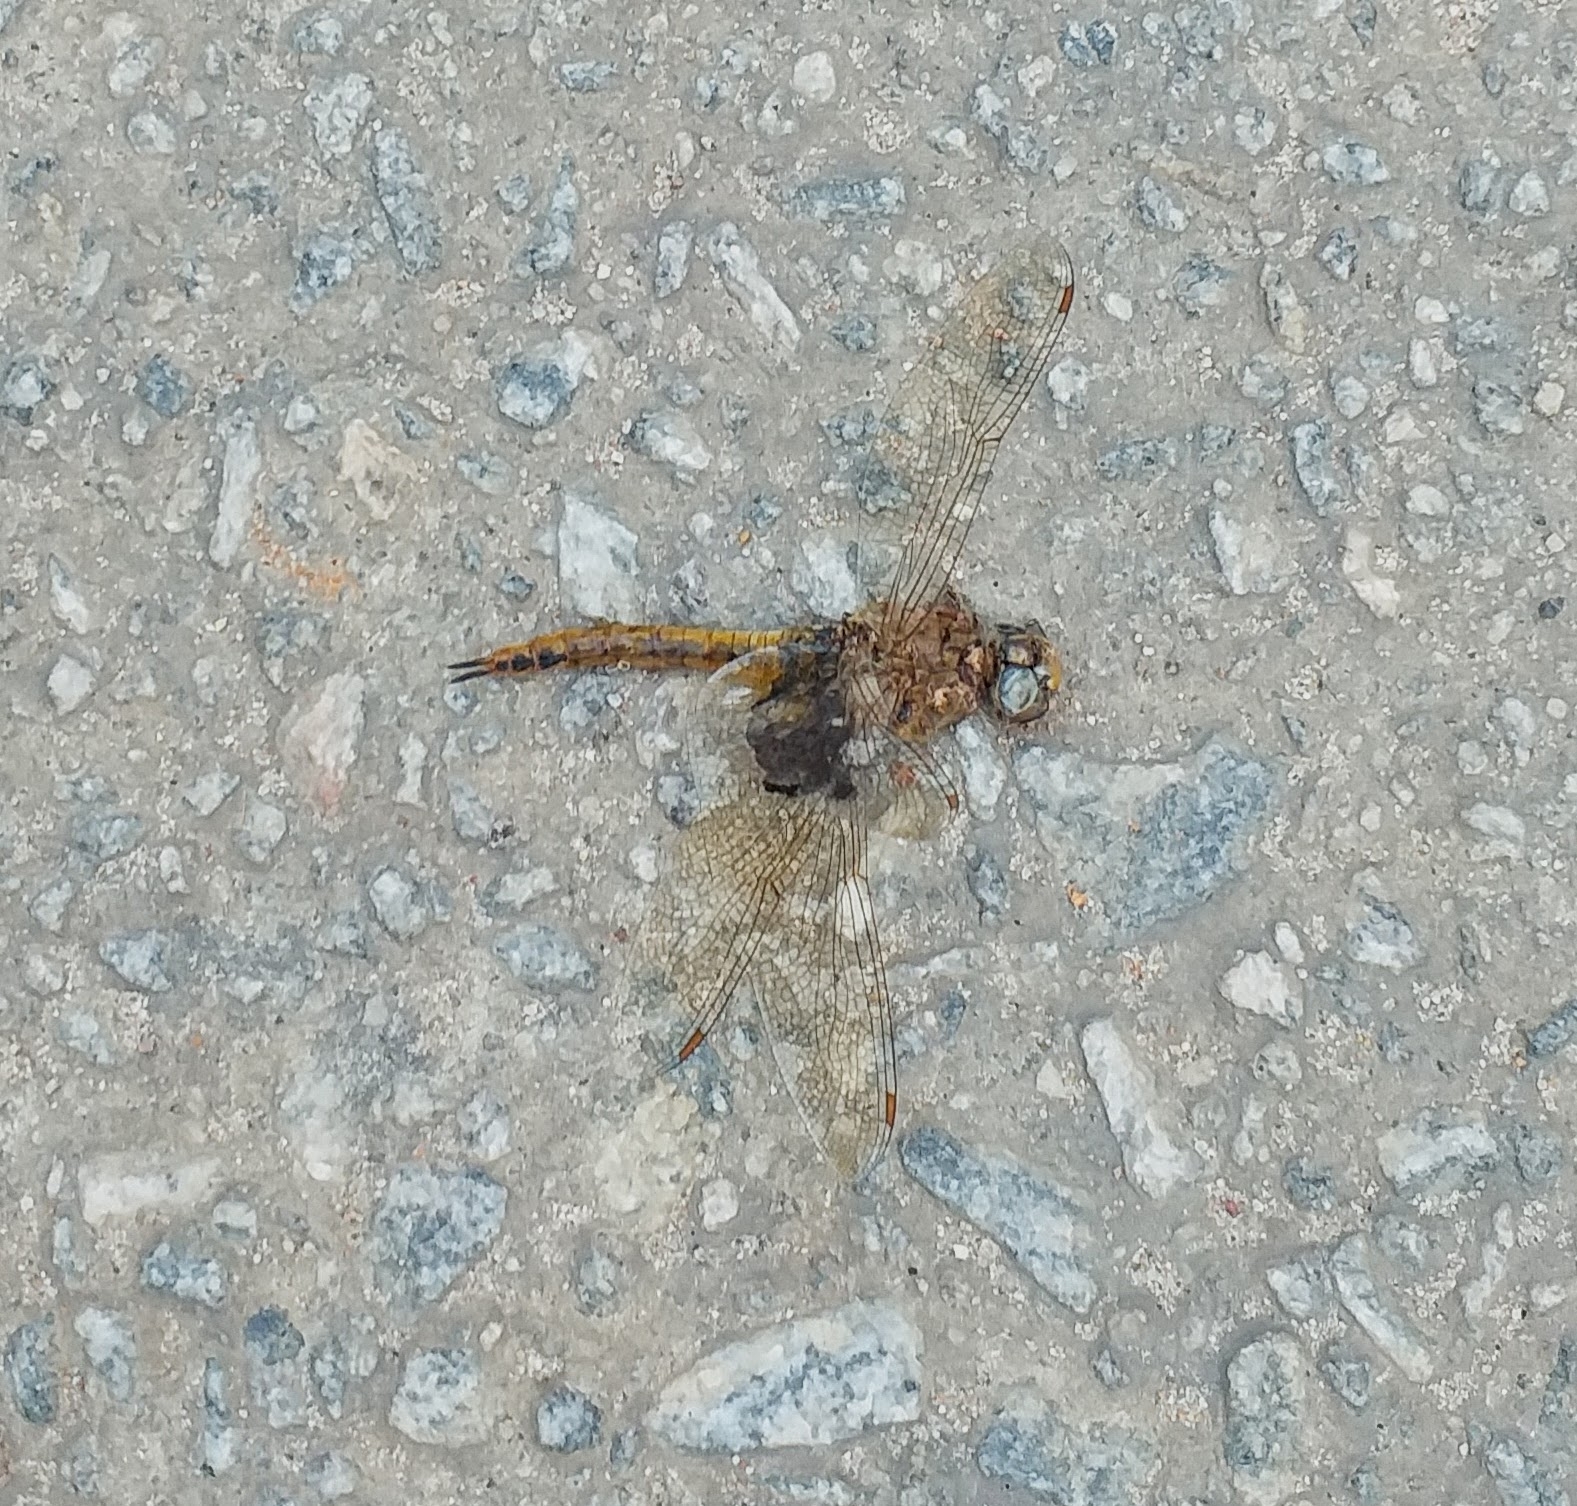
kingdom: Animalia
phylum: Arthropoda
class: Insecta
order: Odonata
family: Libellulidae
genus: Pantala
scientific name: Pantala flavescens
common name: Wandering glider
